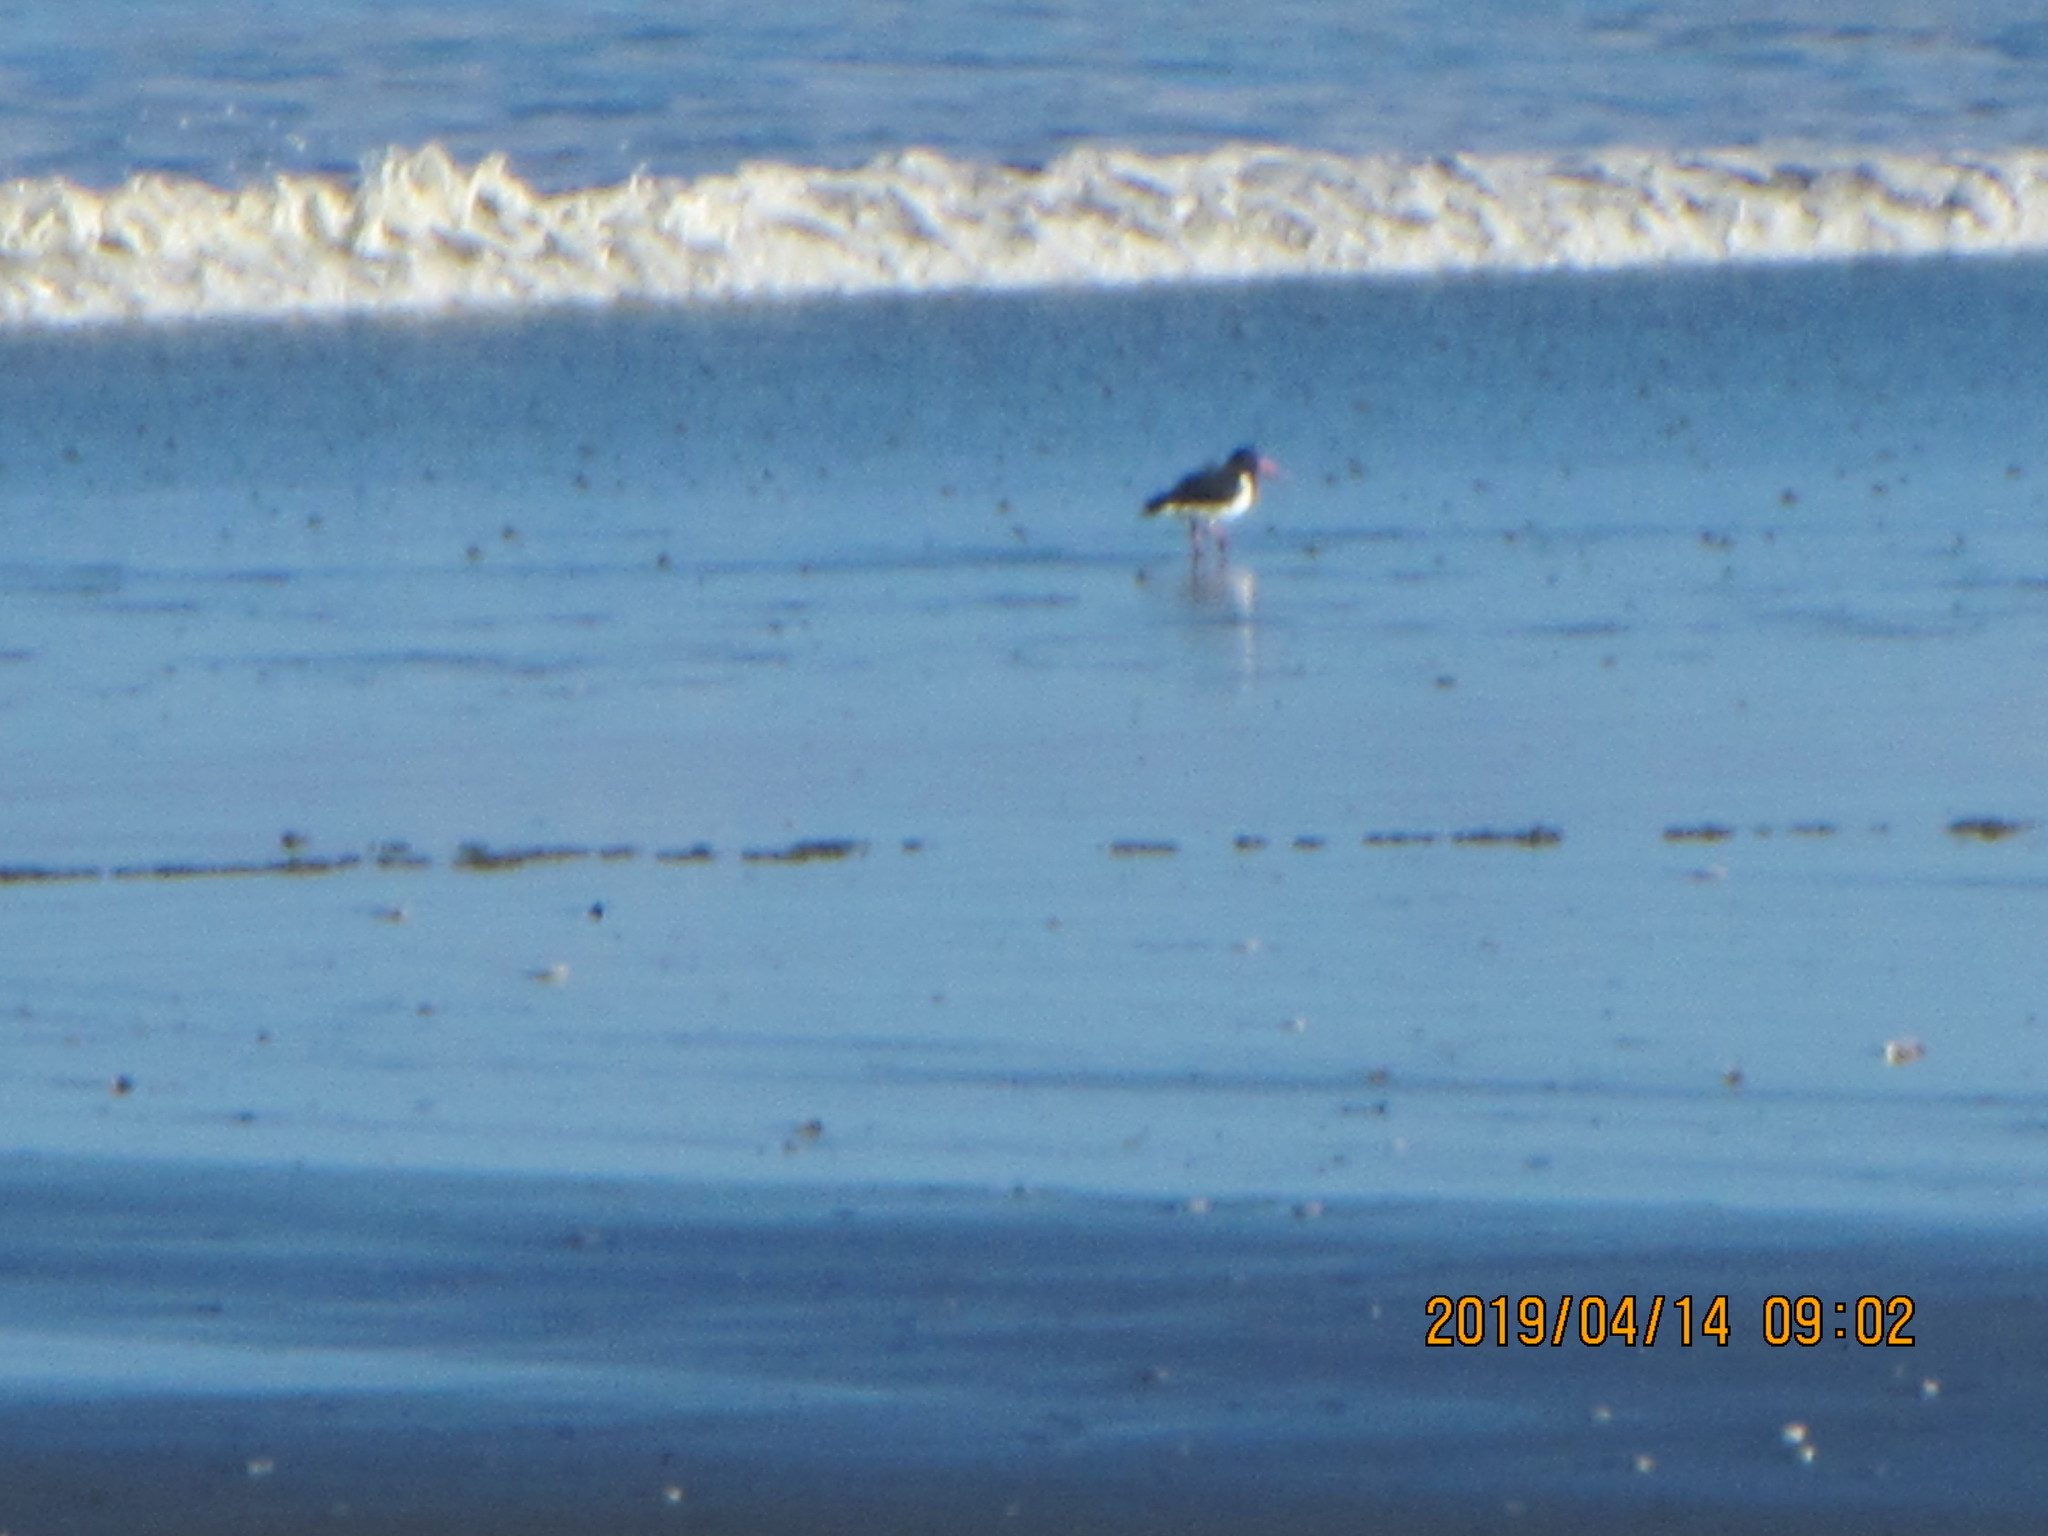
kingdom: Animalia
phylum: Chordata
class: Aves
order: Charadriiformes
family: Haematopodidae
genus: Haematopus
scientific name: Haematopus finschi
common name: South island oystercatcher
